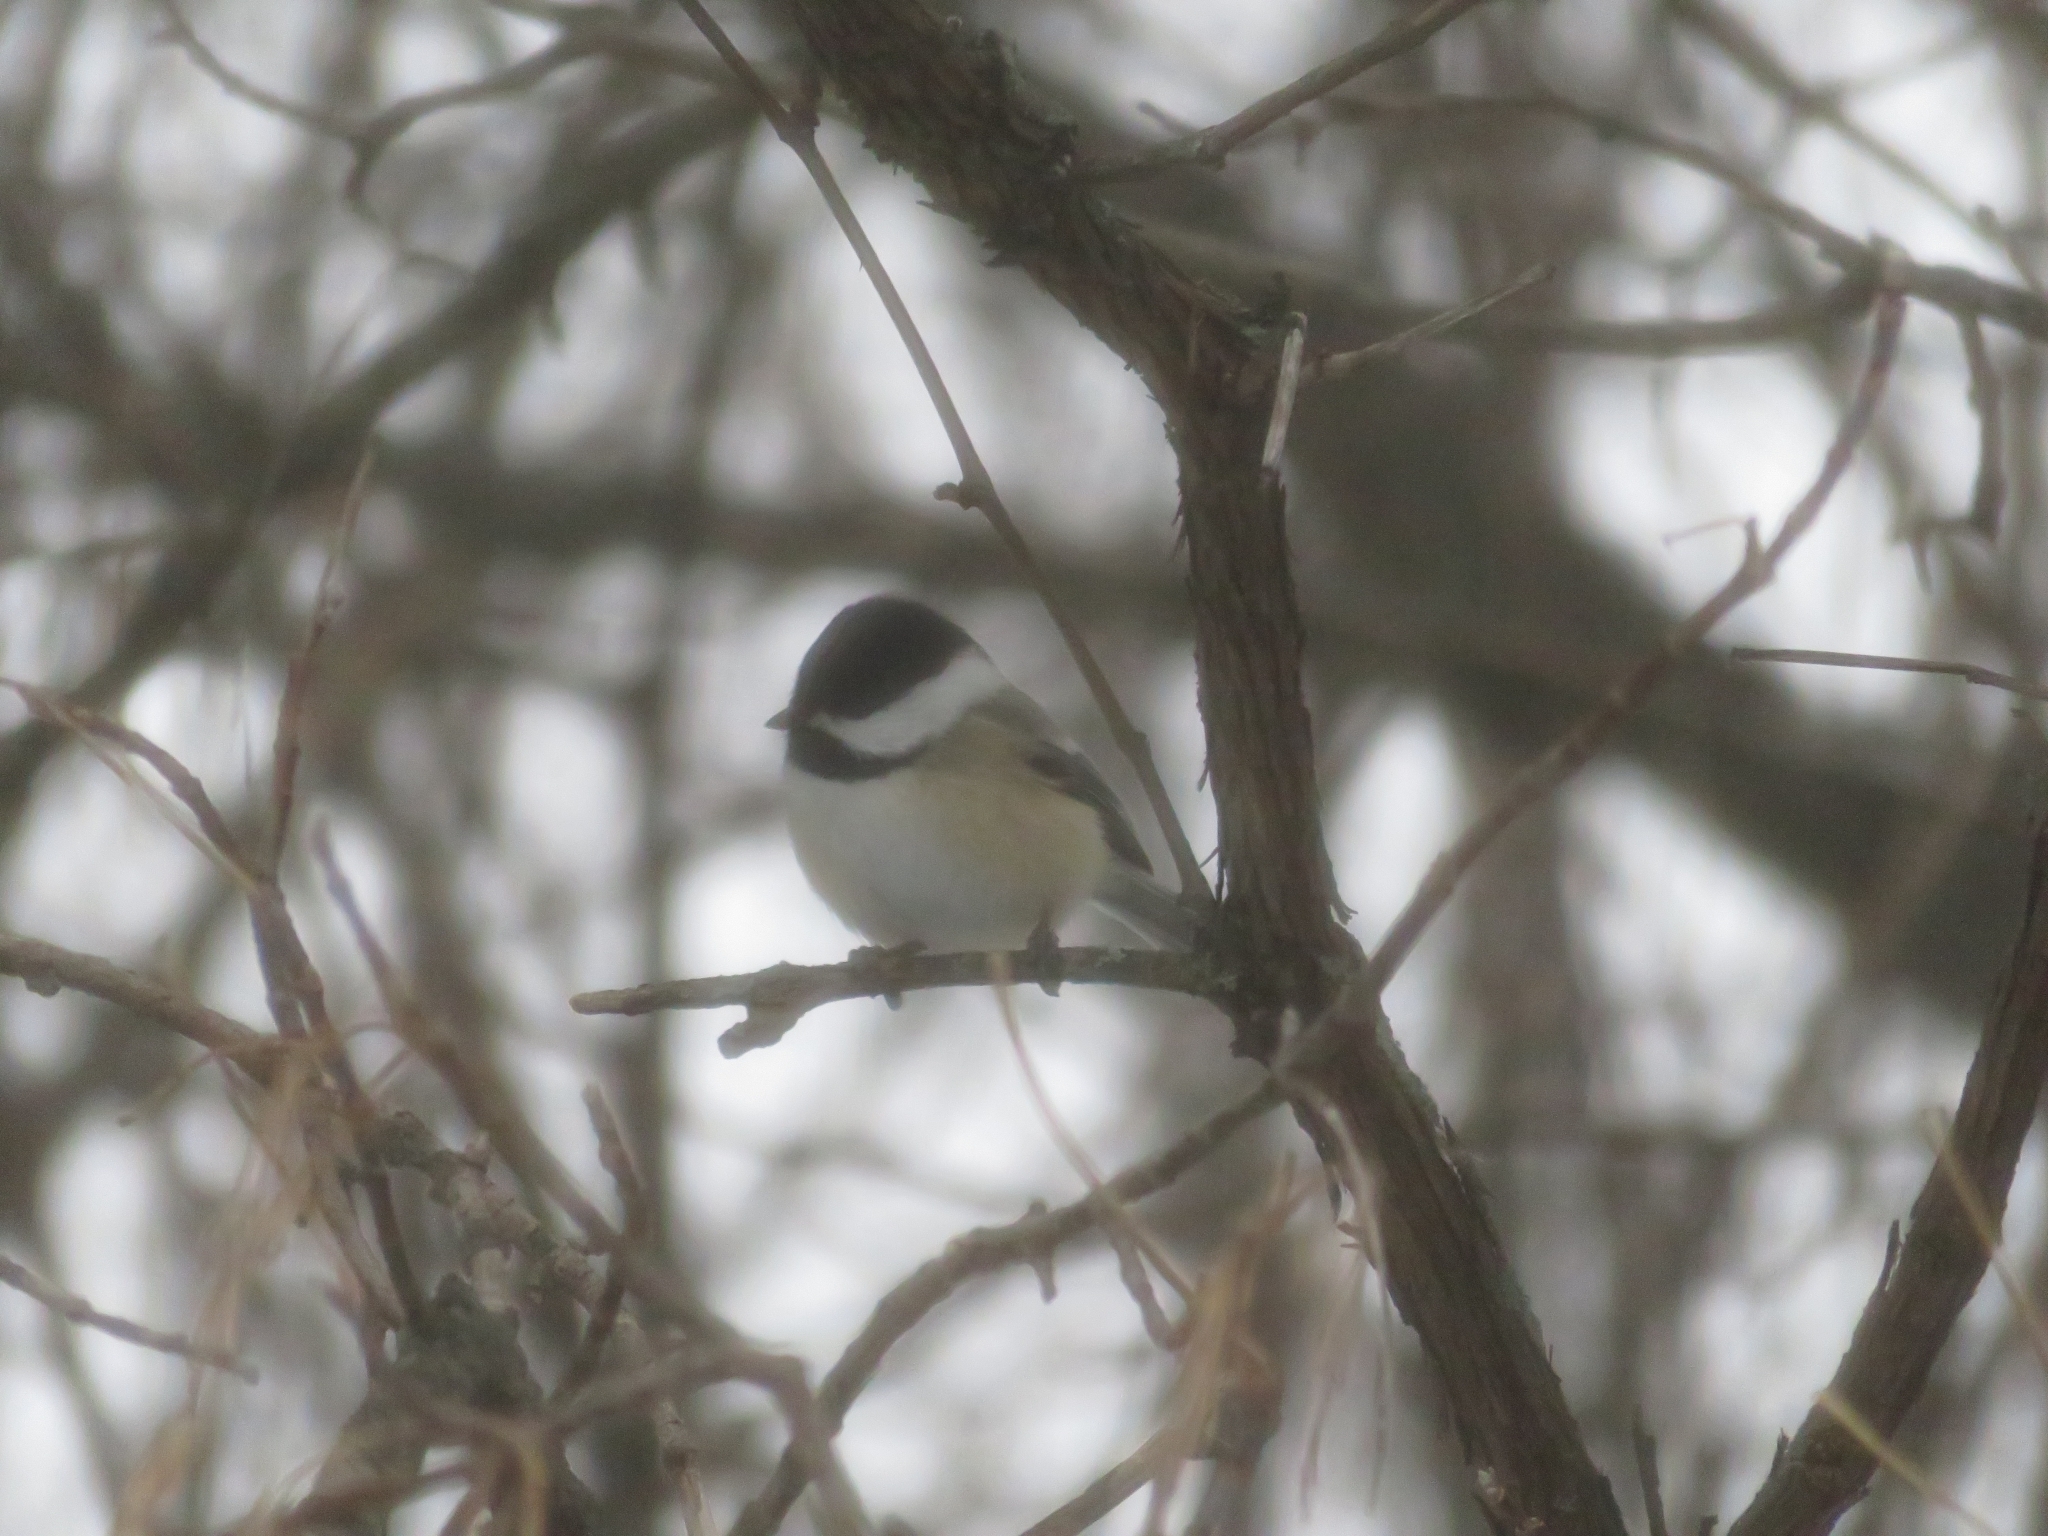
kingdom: Animalia
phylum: Chordata
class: Aves
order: Passeriformes
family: Paridae
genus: Poecile
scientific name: Poecile atricapillus
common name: Black-capped chickadee
